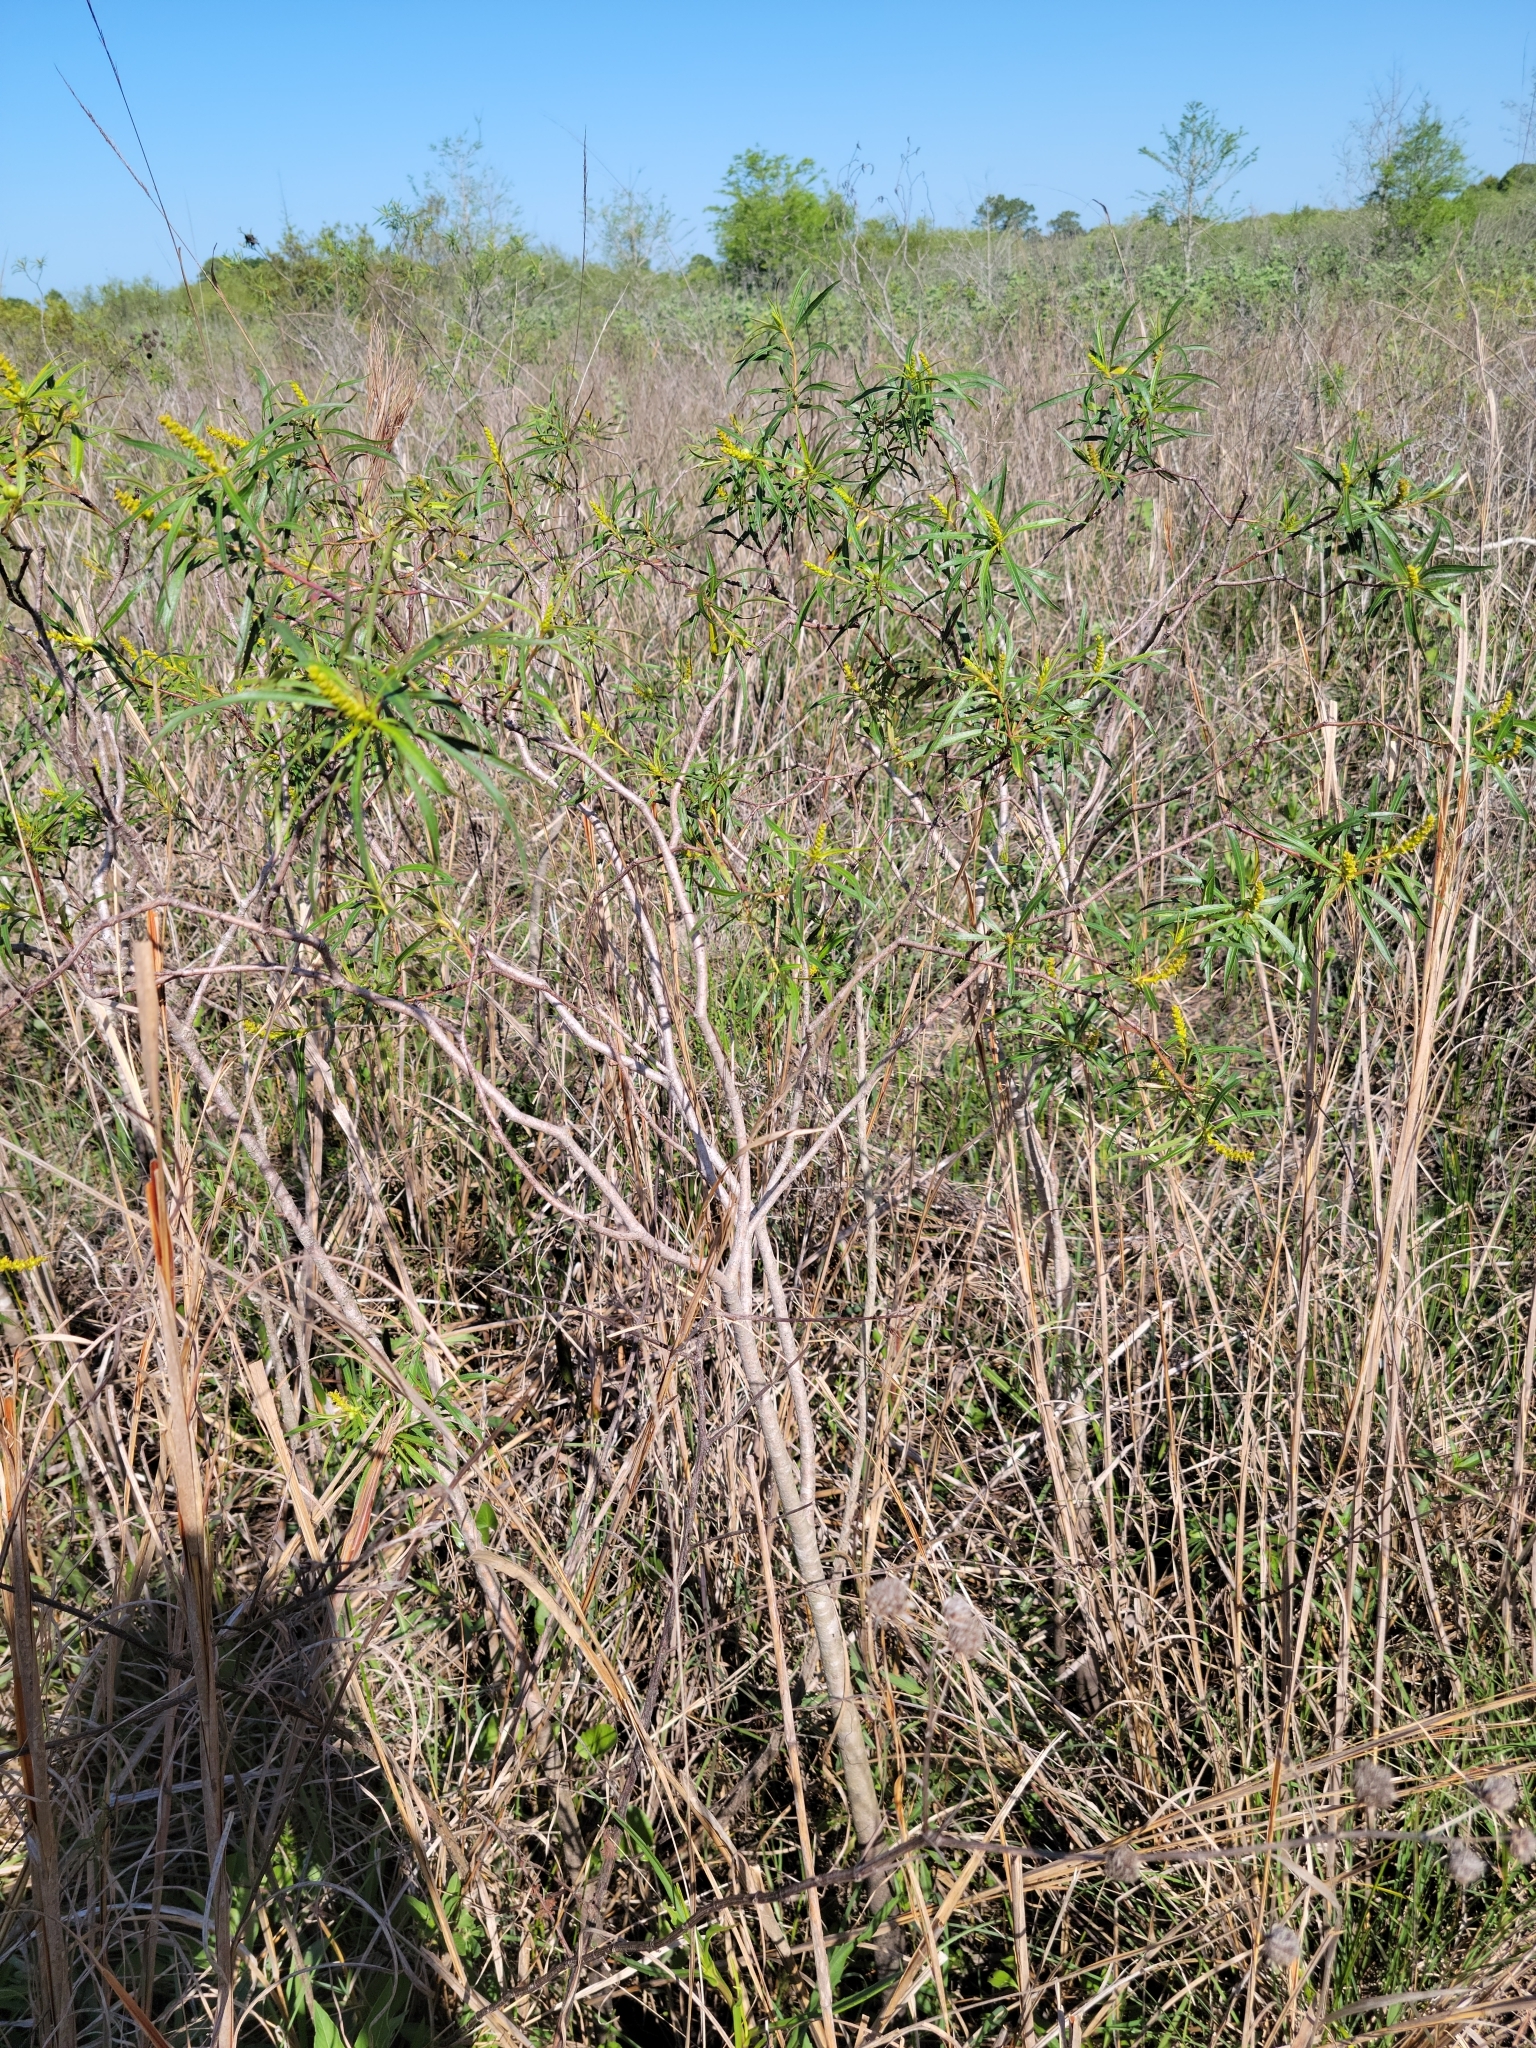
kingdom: Plantae
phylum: Tracheophyta
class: Magnoliopsida
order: Malpighiales
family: Euphorbiaceae
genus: Stillingia
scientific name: Stillingia aquatica
